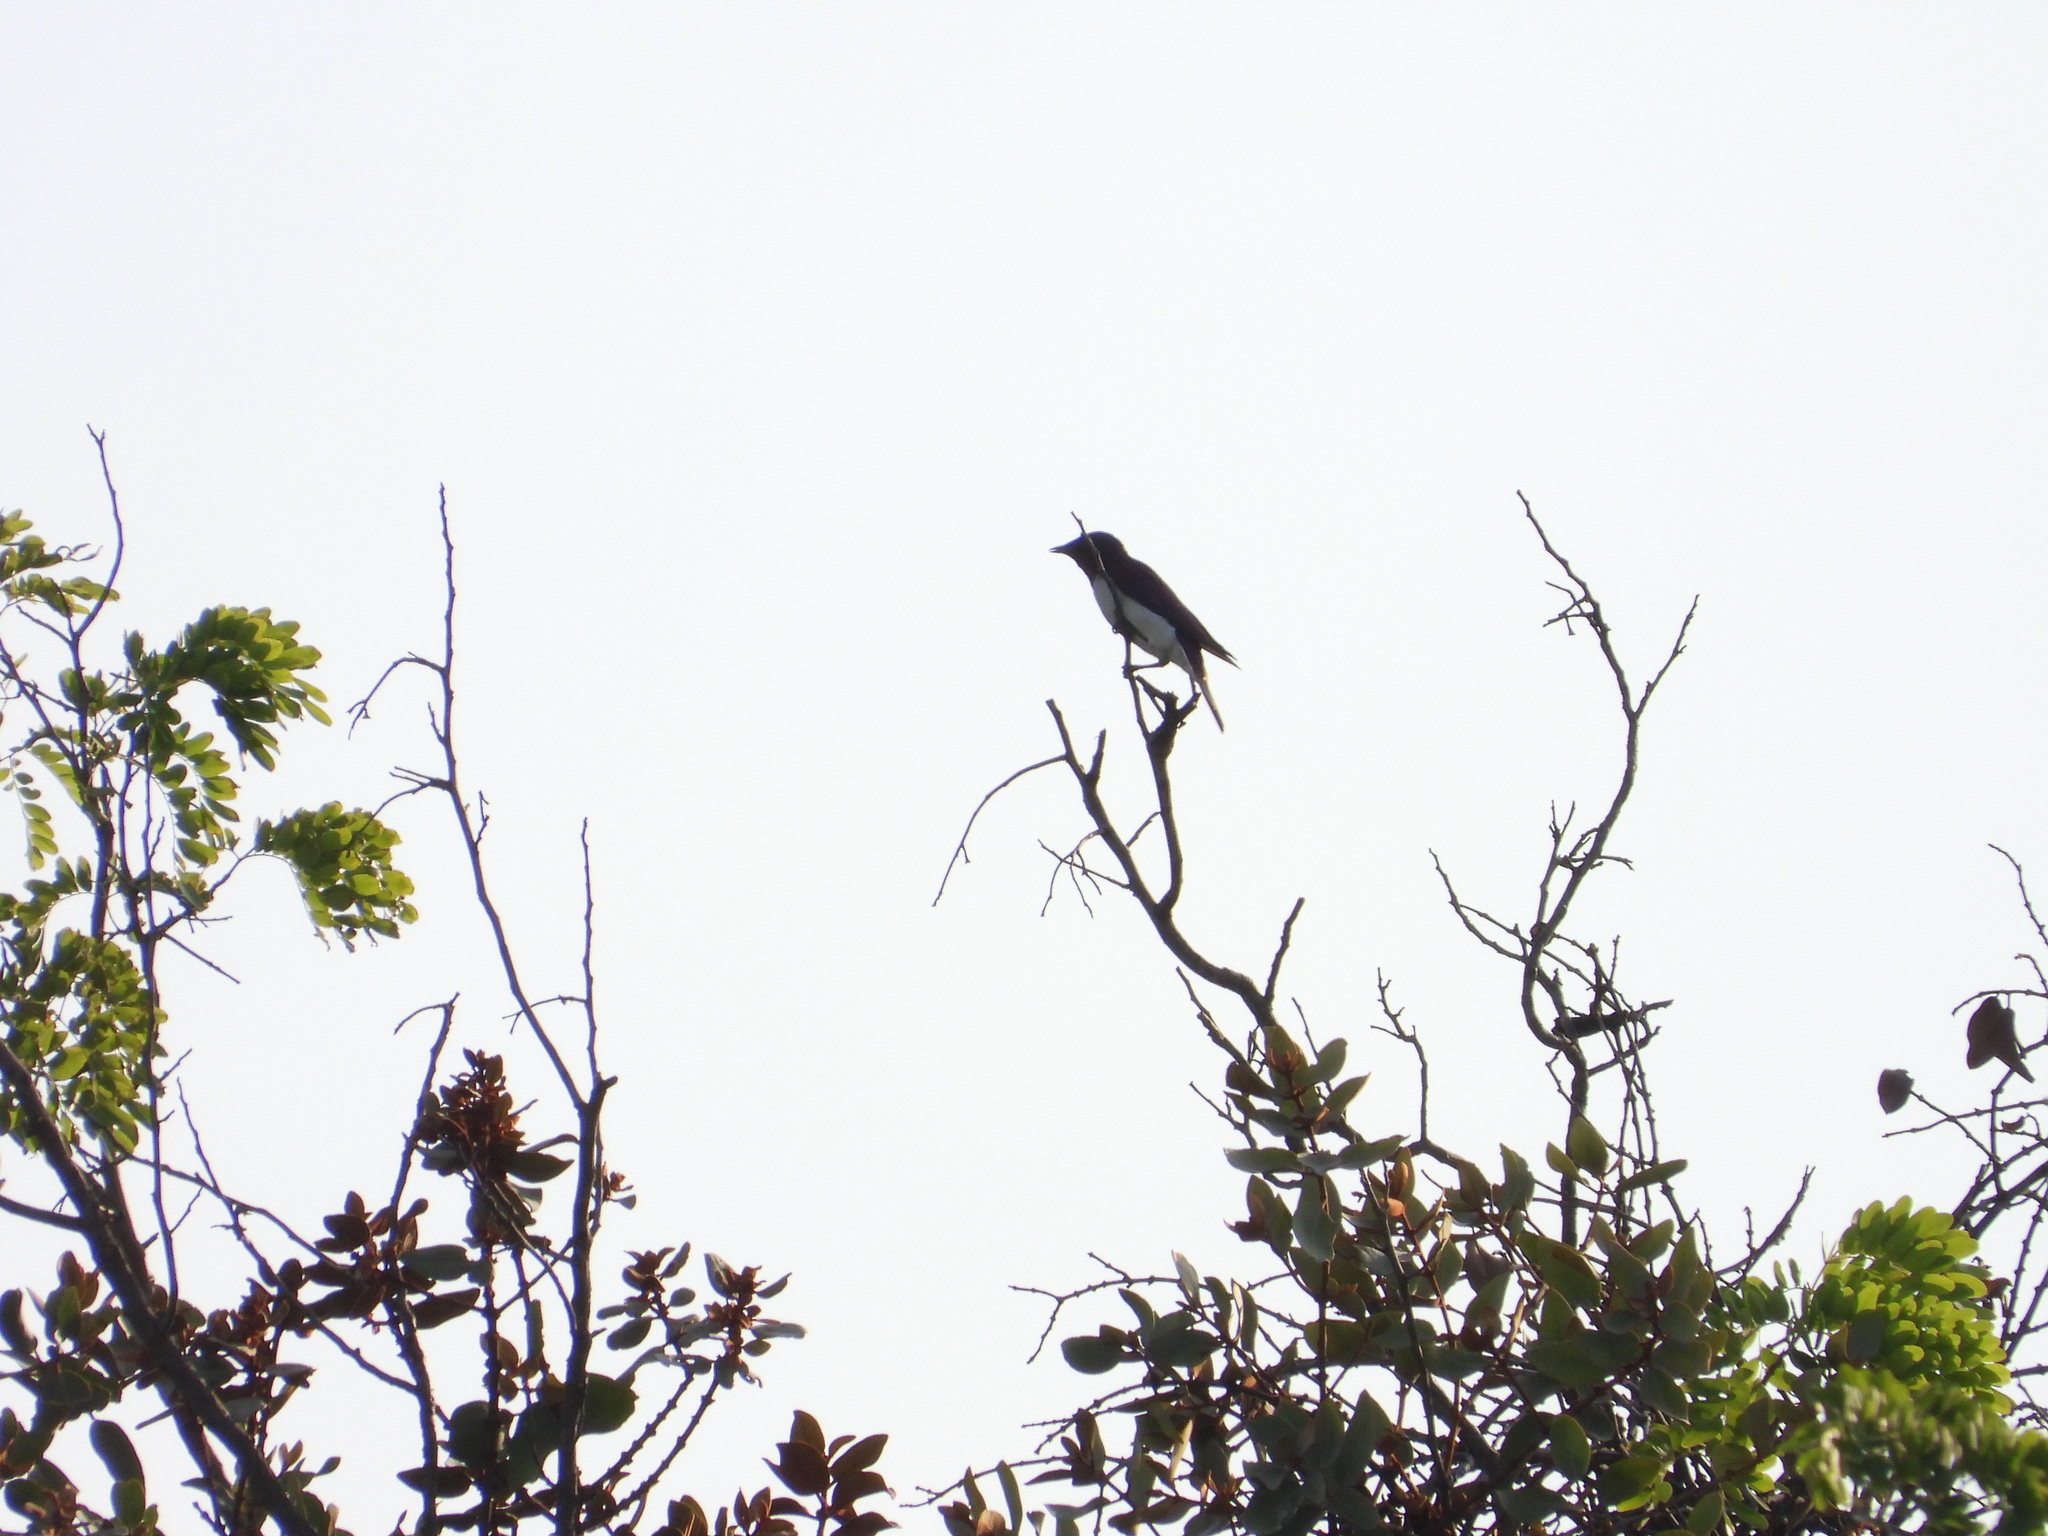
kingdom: Animalia
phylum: Chordata
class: Aves
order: Passeriformes
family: Sturnidae
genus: Cinnyricinclus
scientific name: Cinnyricinclus leucogaster
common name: Violet-backed starling
